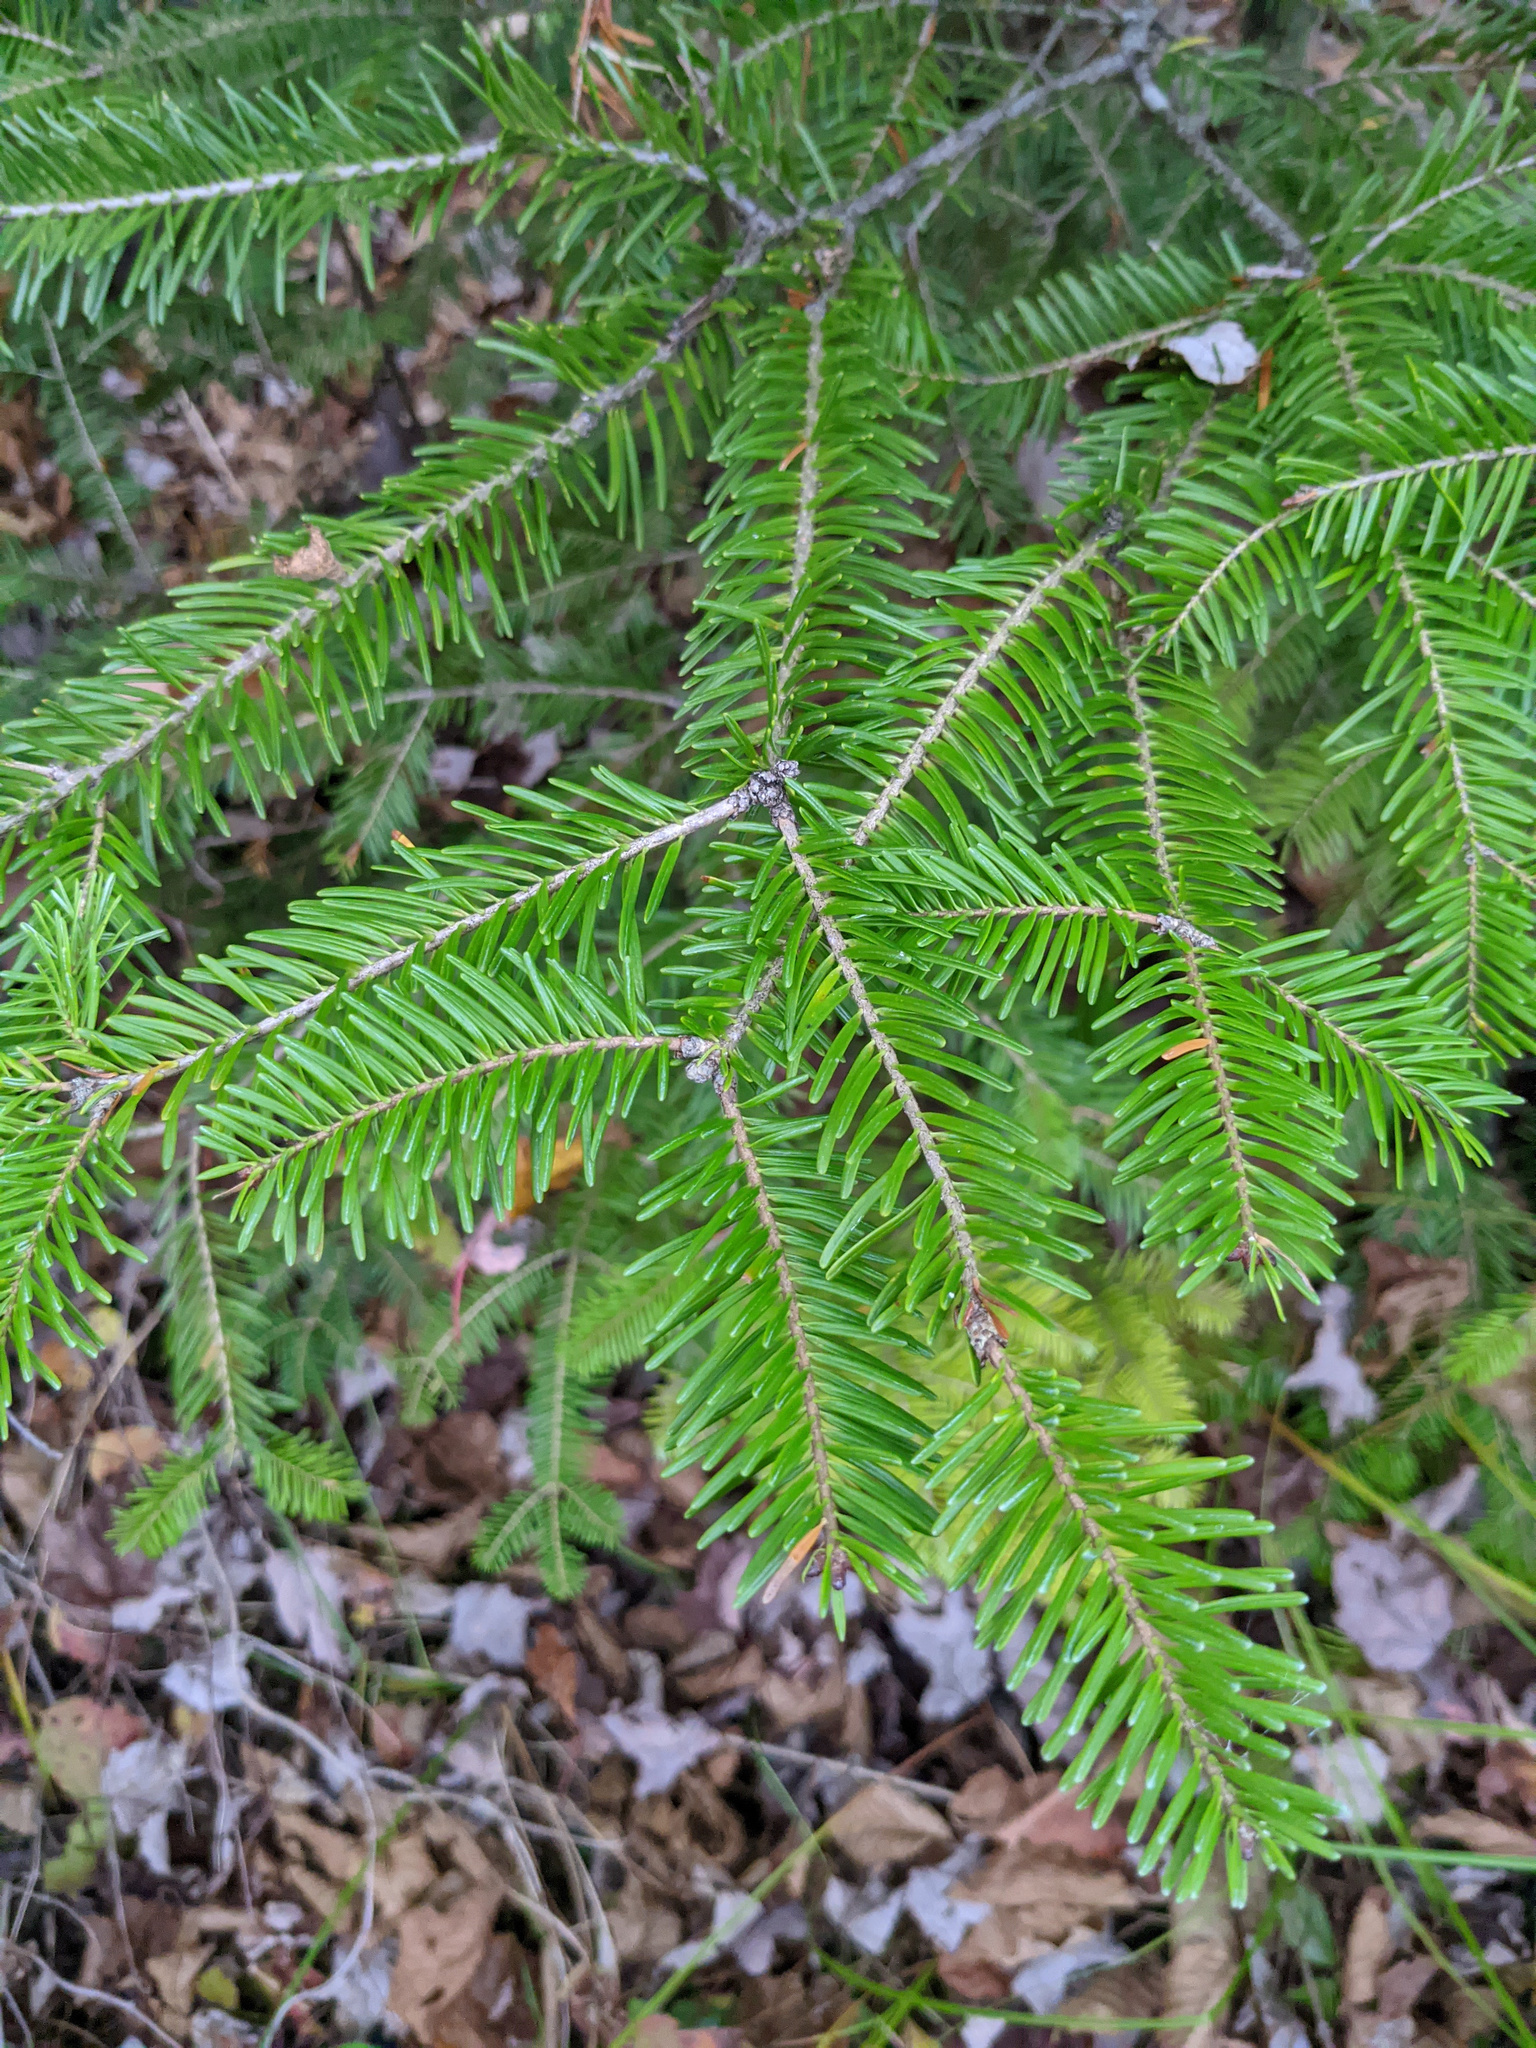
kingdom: Plantae
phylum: Tracheophyta
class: Pinopsida
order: Pinales
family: Pinaceae
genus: Abies
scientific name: Abies balsamea
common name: Balsam fir
